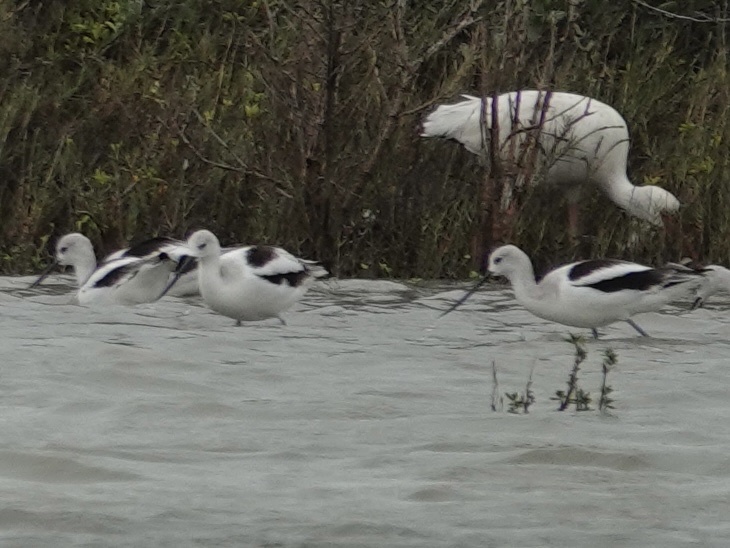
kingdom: Animalia
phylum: Chordata
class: Aves
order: Charadriiformes
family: Recurvirostridae
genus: Recurvirostra
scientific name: Recurvirostra americana
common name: American avocet
